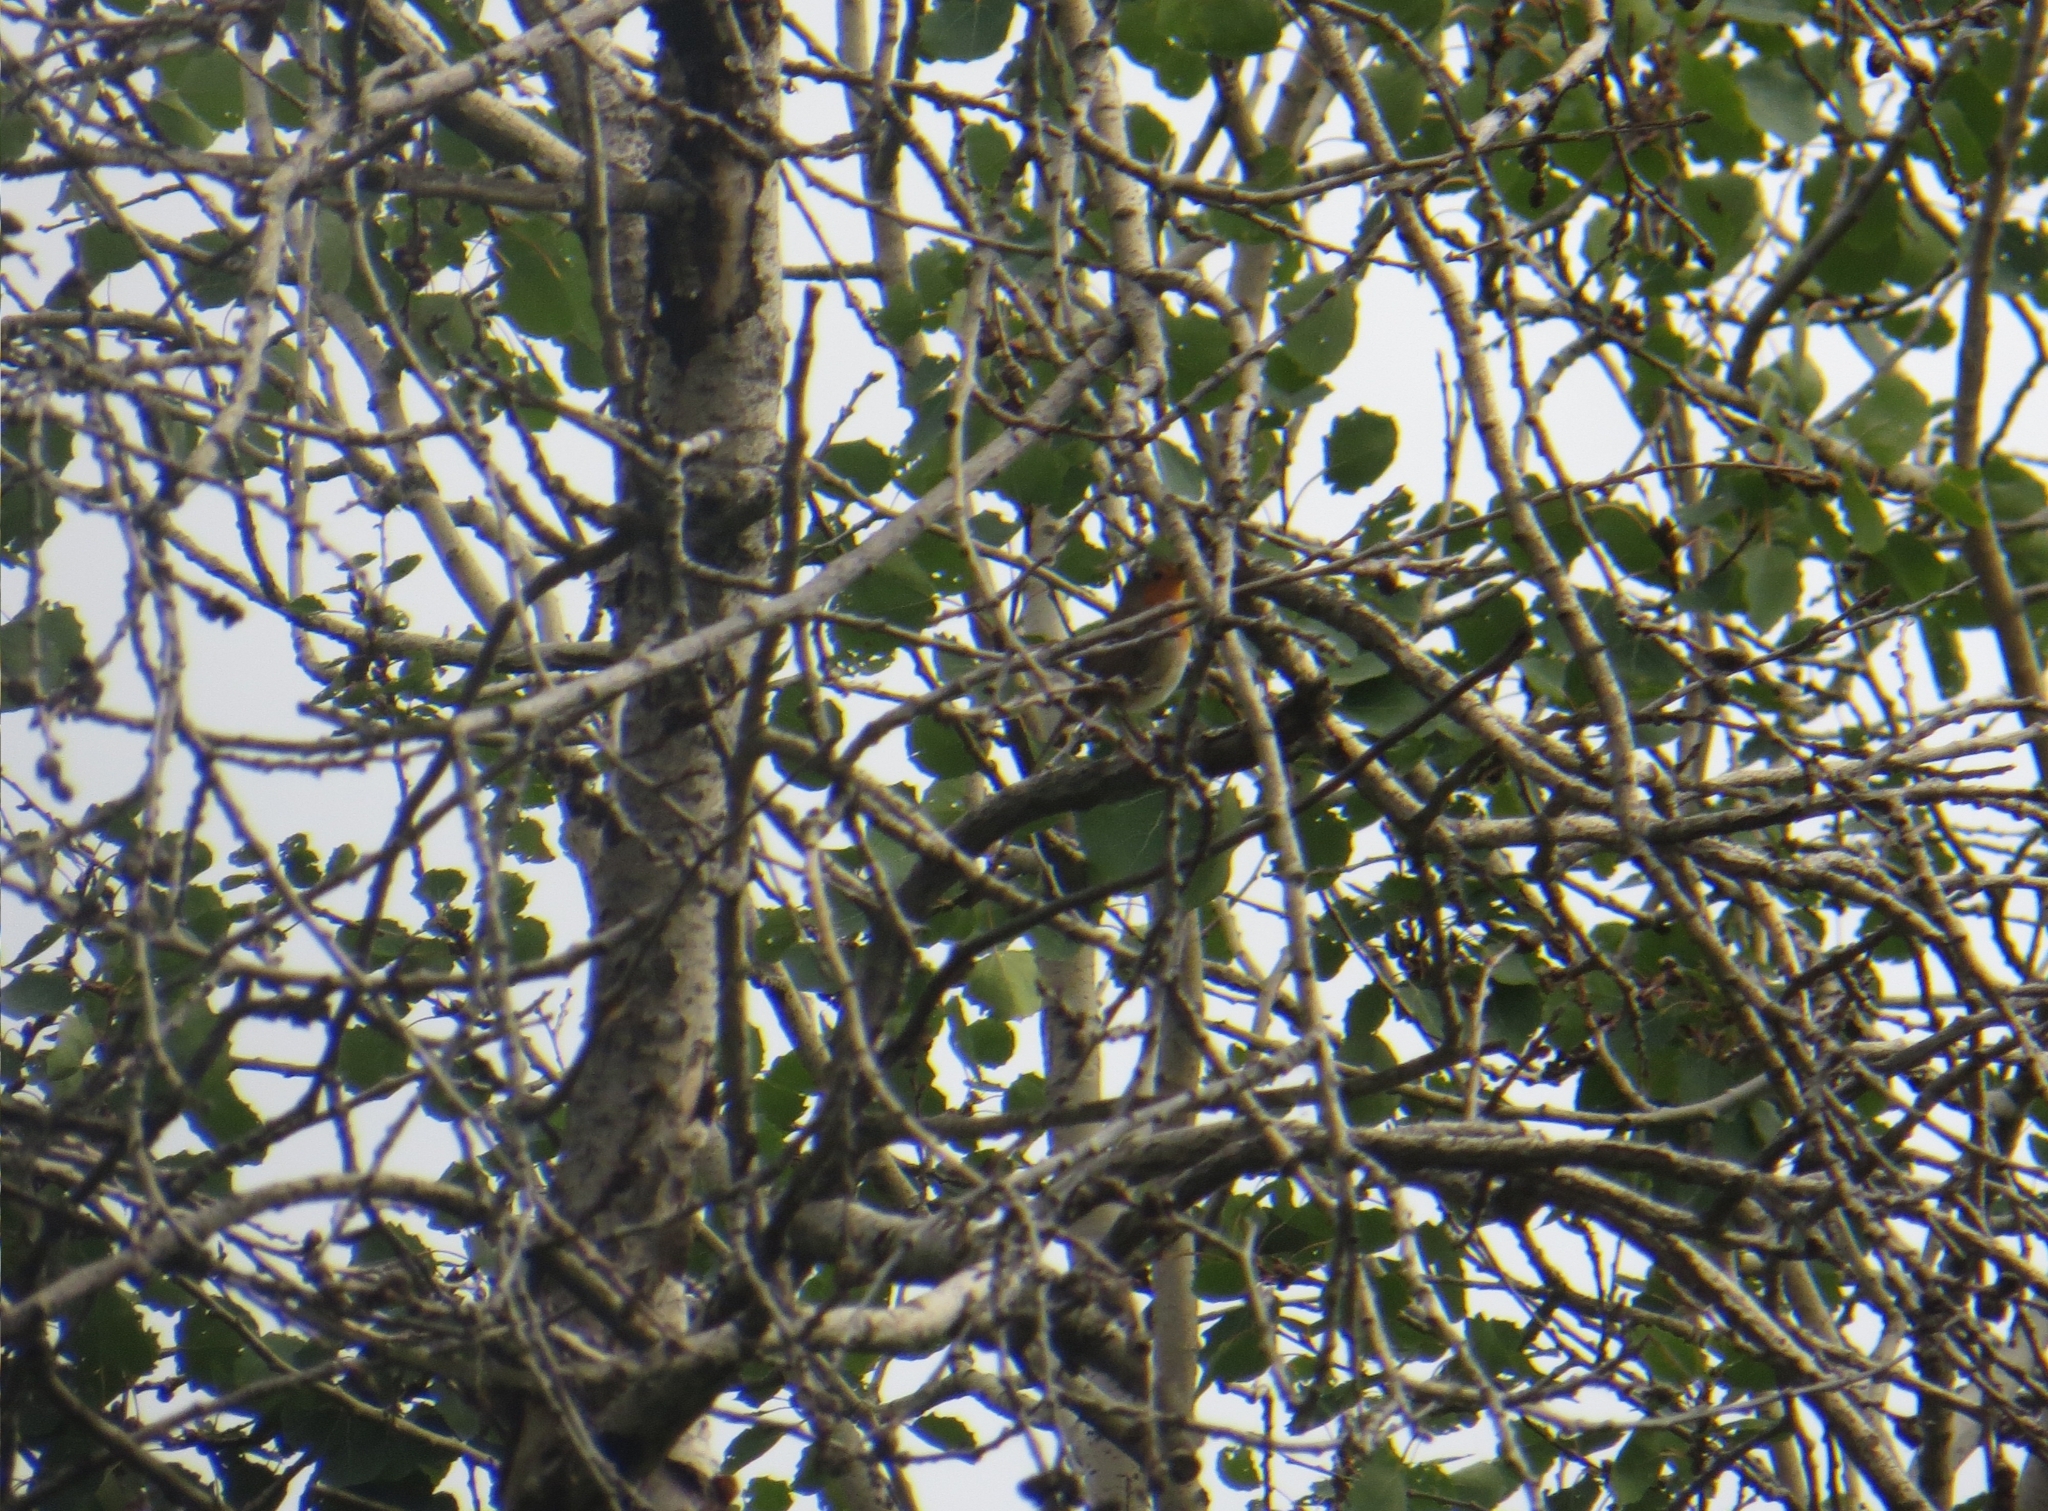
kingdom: Animalia
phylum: Chordata
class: Aves
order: Passeriformes
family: Muscicapidae
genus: Erithacus
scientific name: Erithacus rubecula
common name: European robin
